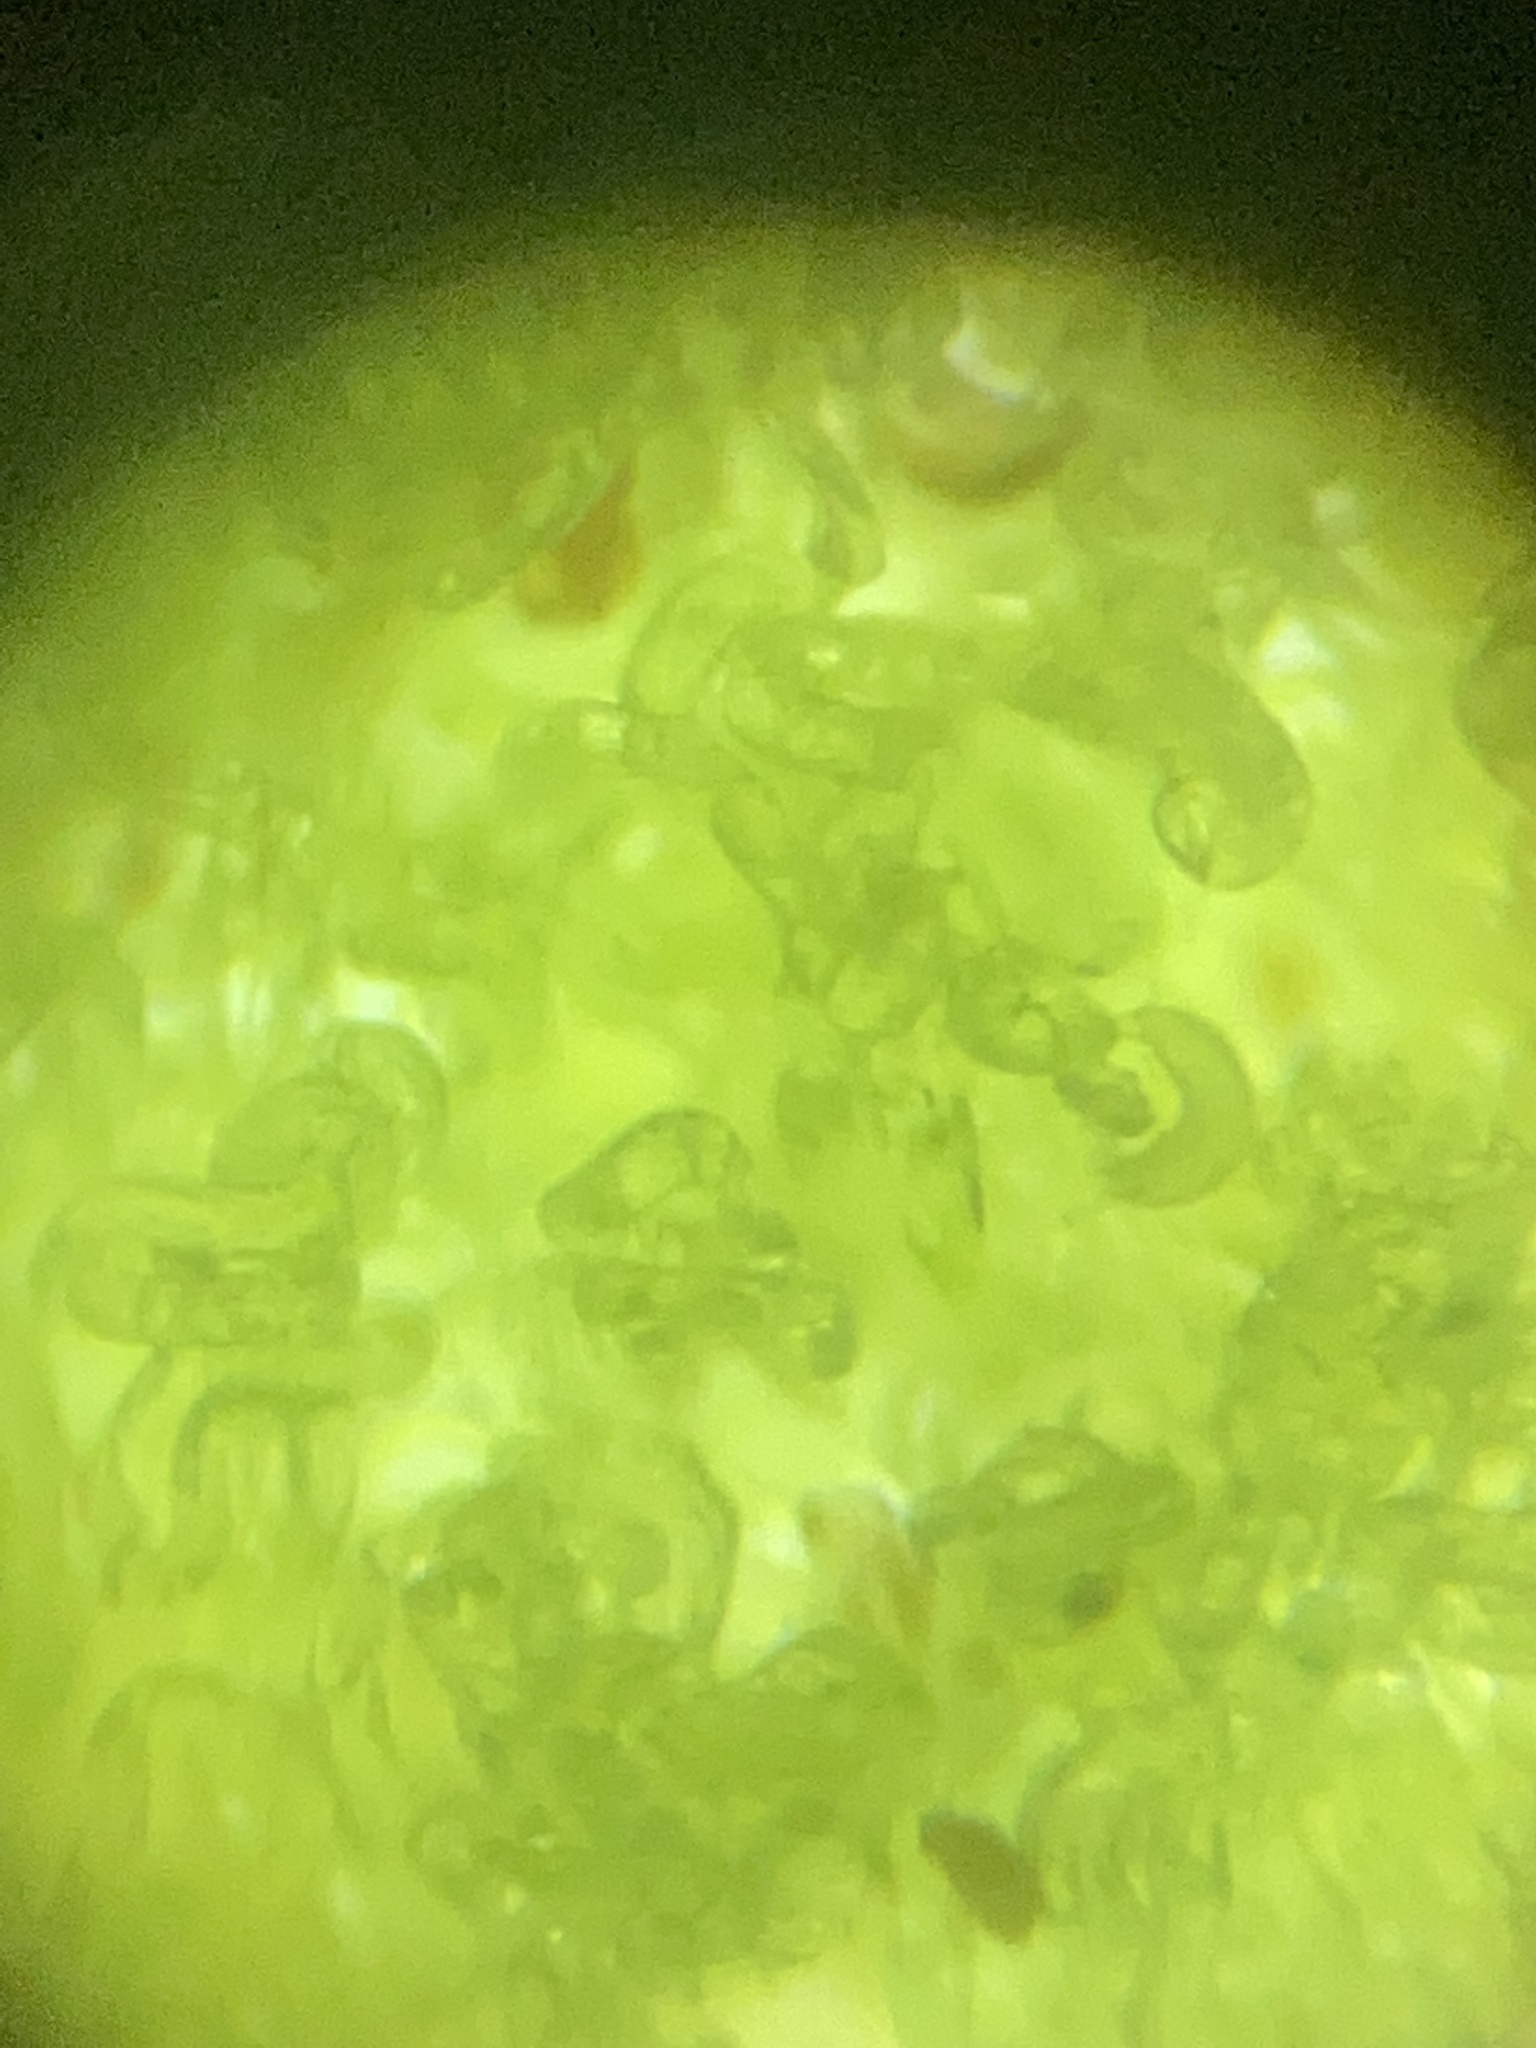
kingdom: Animalia
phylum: Arthropoda
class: Arachnida
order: Trombidiformes
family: Eriophyidae
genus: Aceria
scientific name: Aceria
